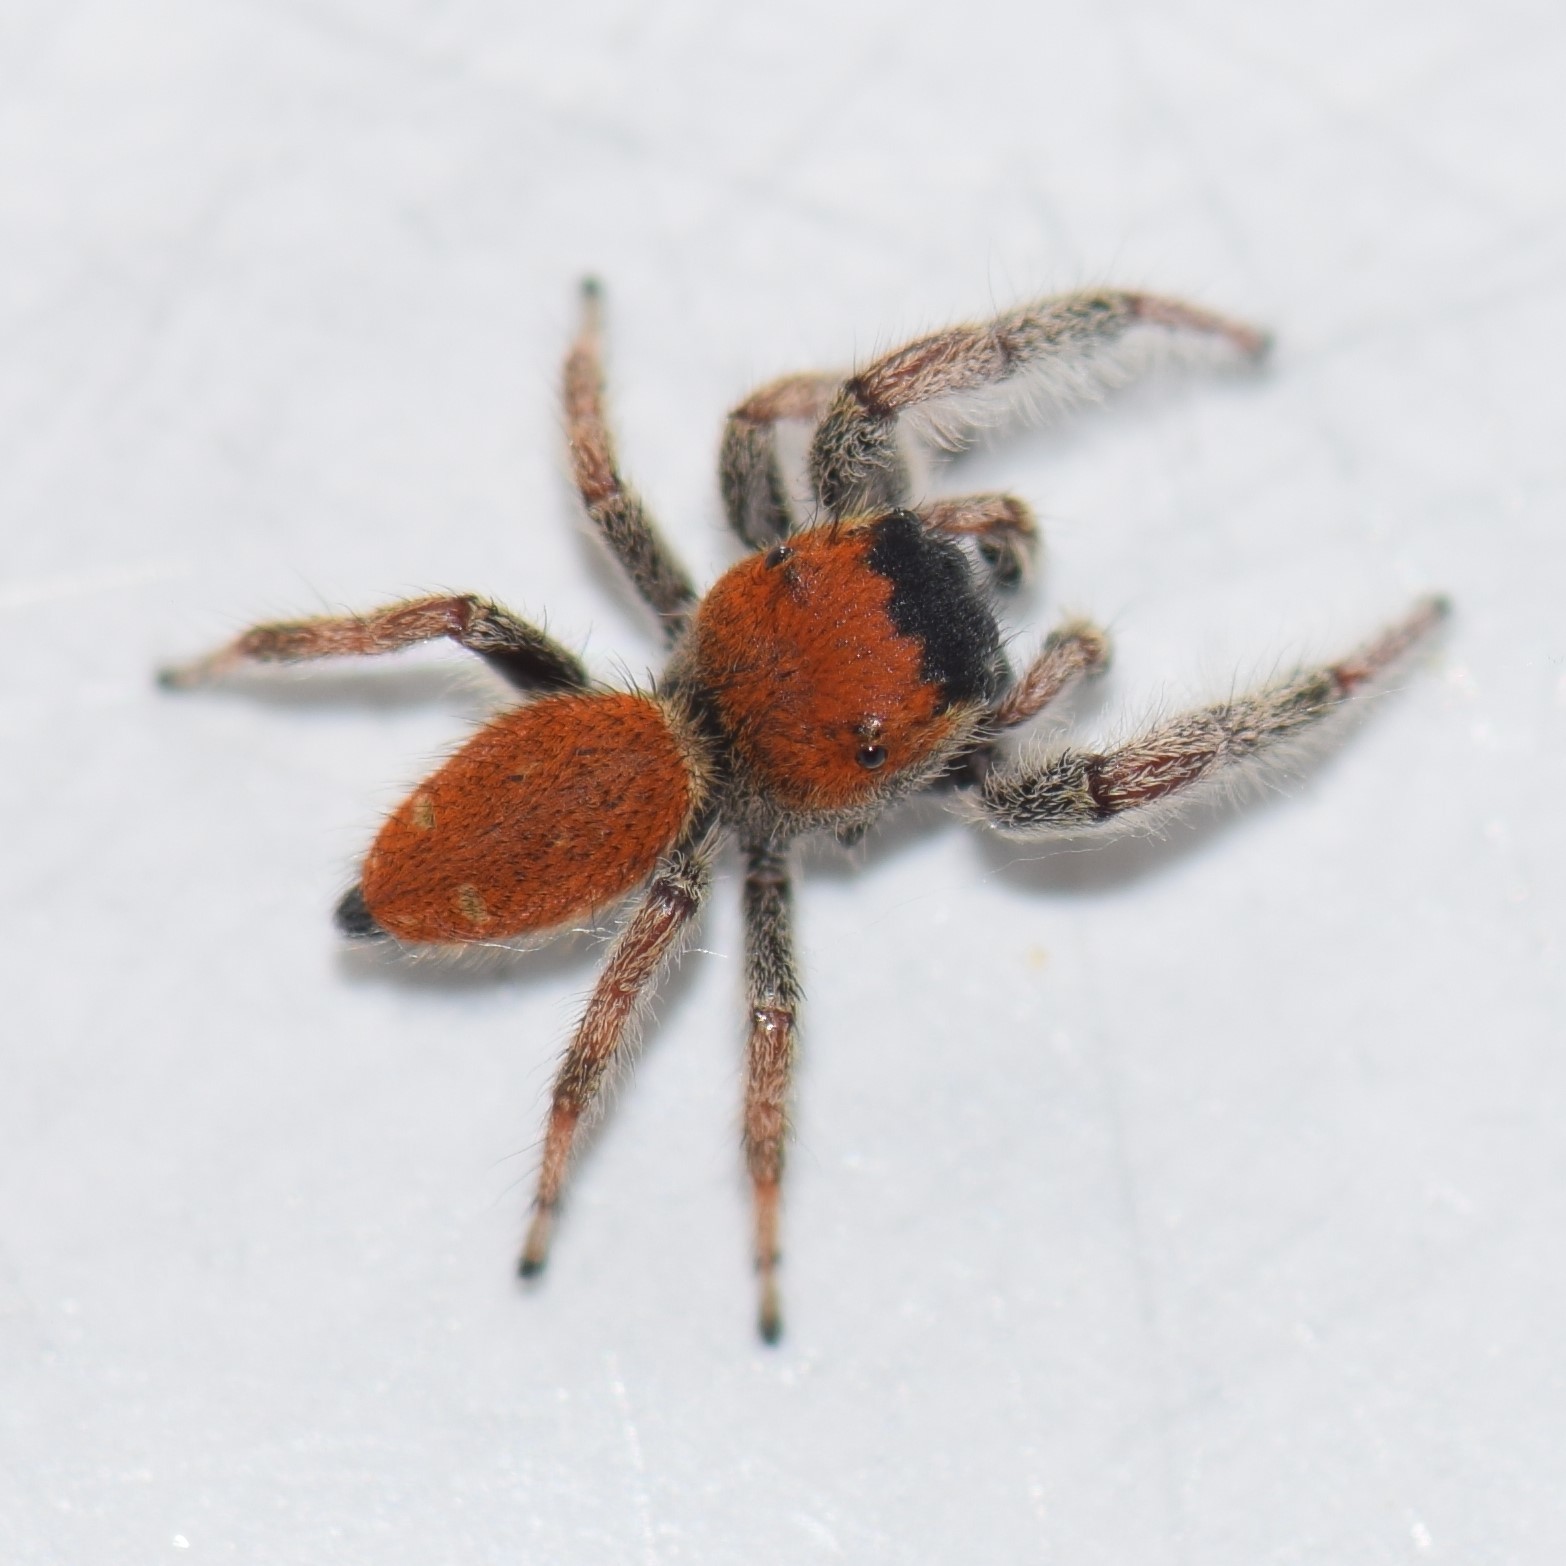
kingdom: Animalia
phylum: Arthropoda
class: Arachnida
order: Araneae
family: Salticidae
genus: Phidippus
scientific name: Phidippus whitmani
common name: Whitman's jumping spider
